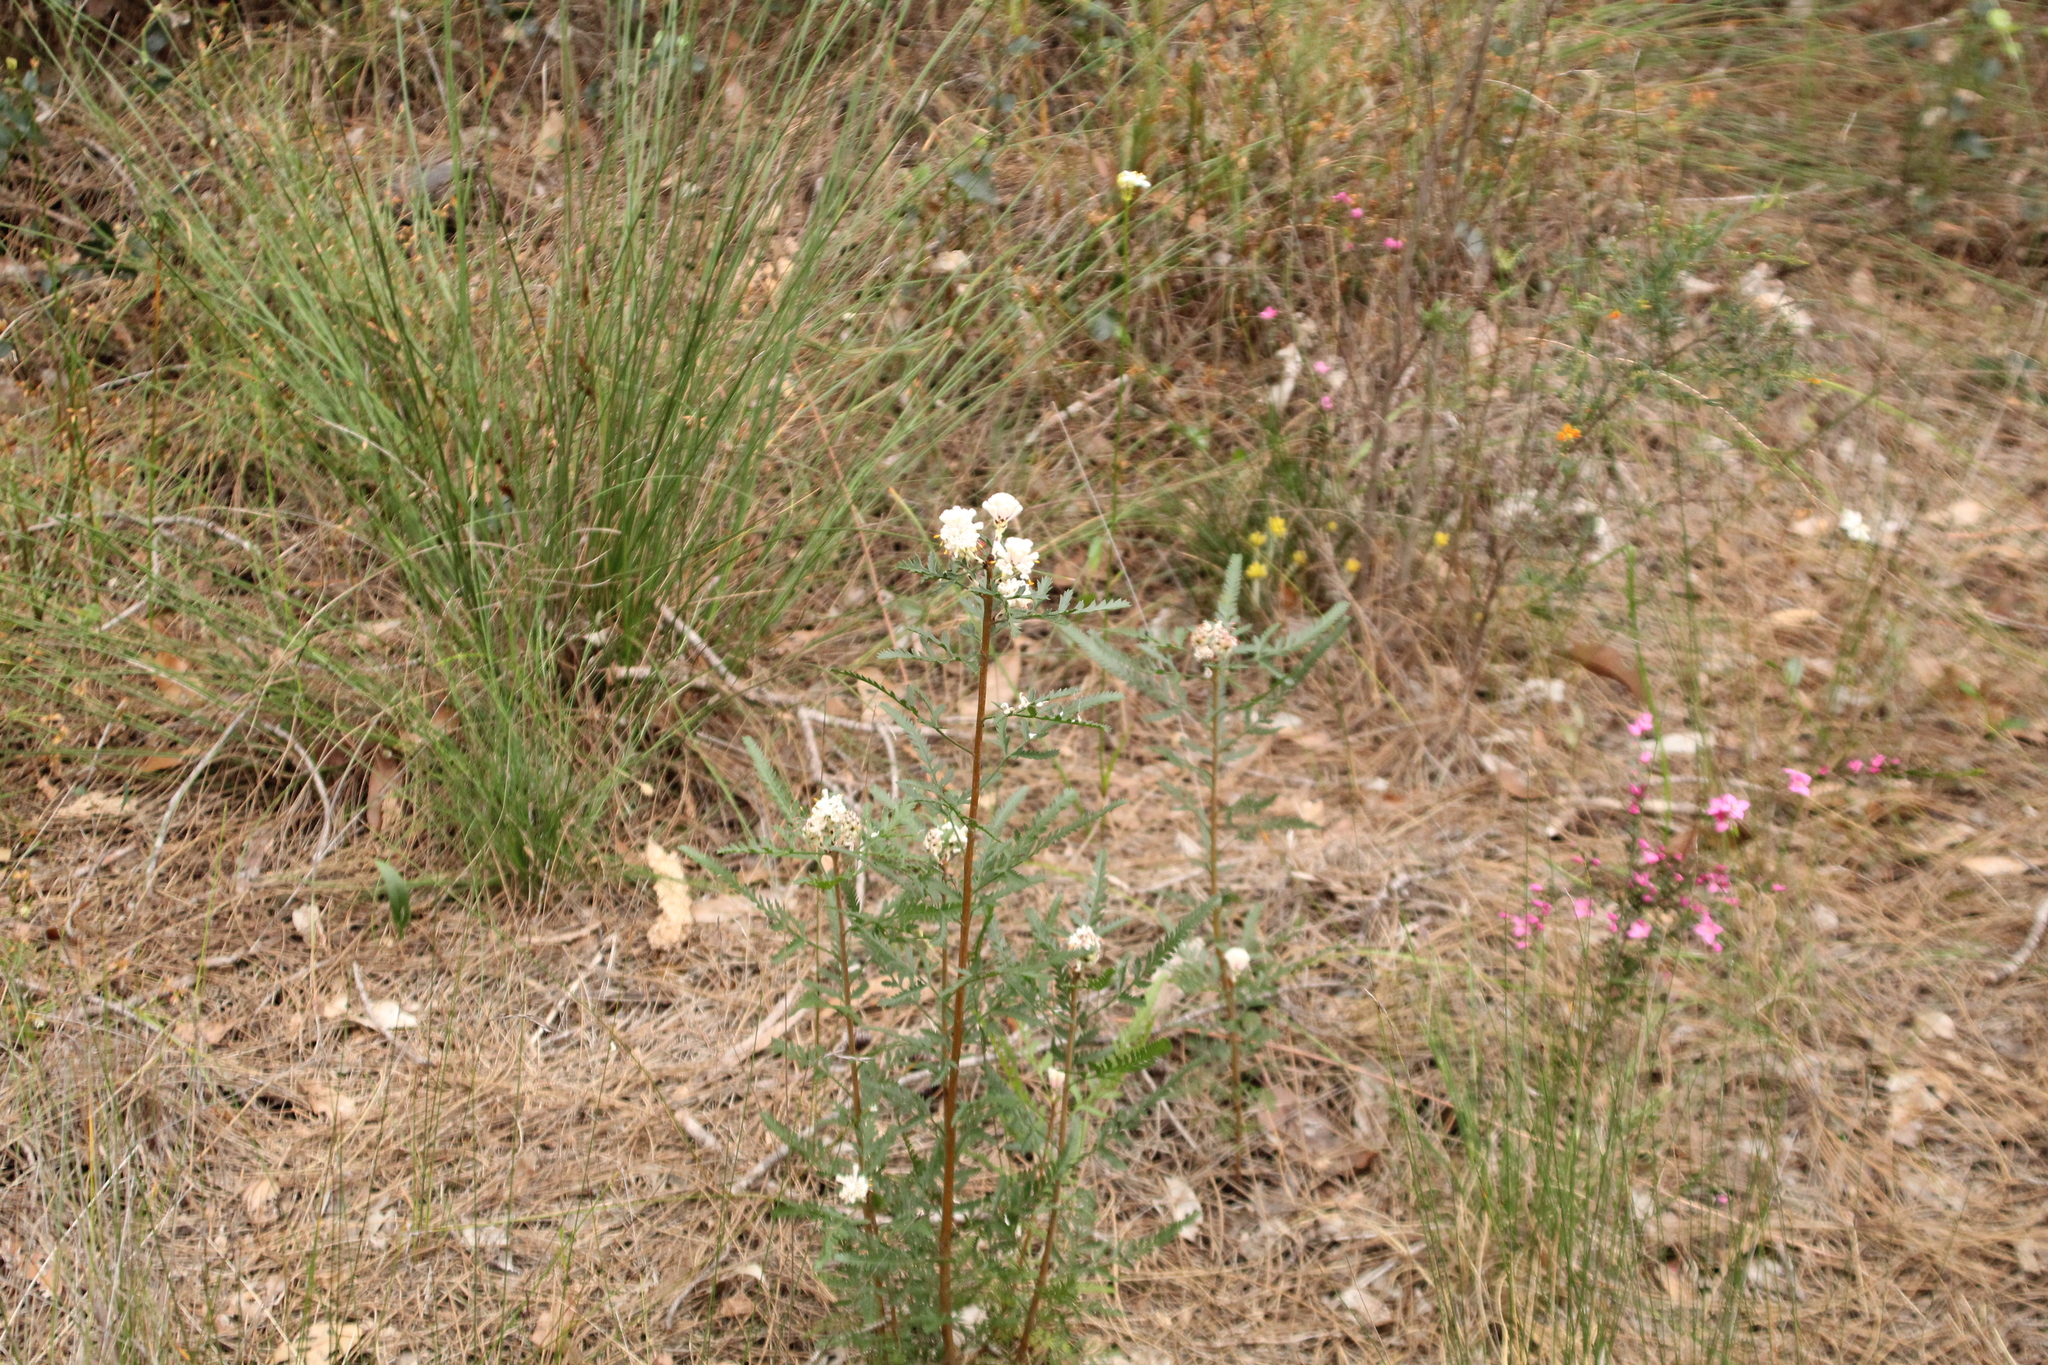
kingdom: Plantae
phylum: Tracheophyta
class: Magnoliopsida
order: Proteales
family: Proteaceae
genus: Petrophile
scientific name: Petrophile diversifolia
